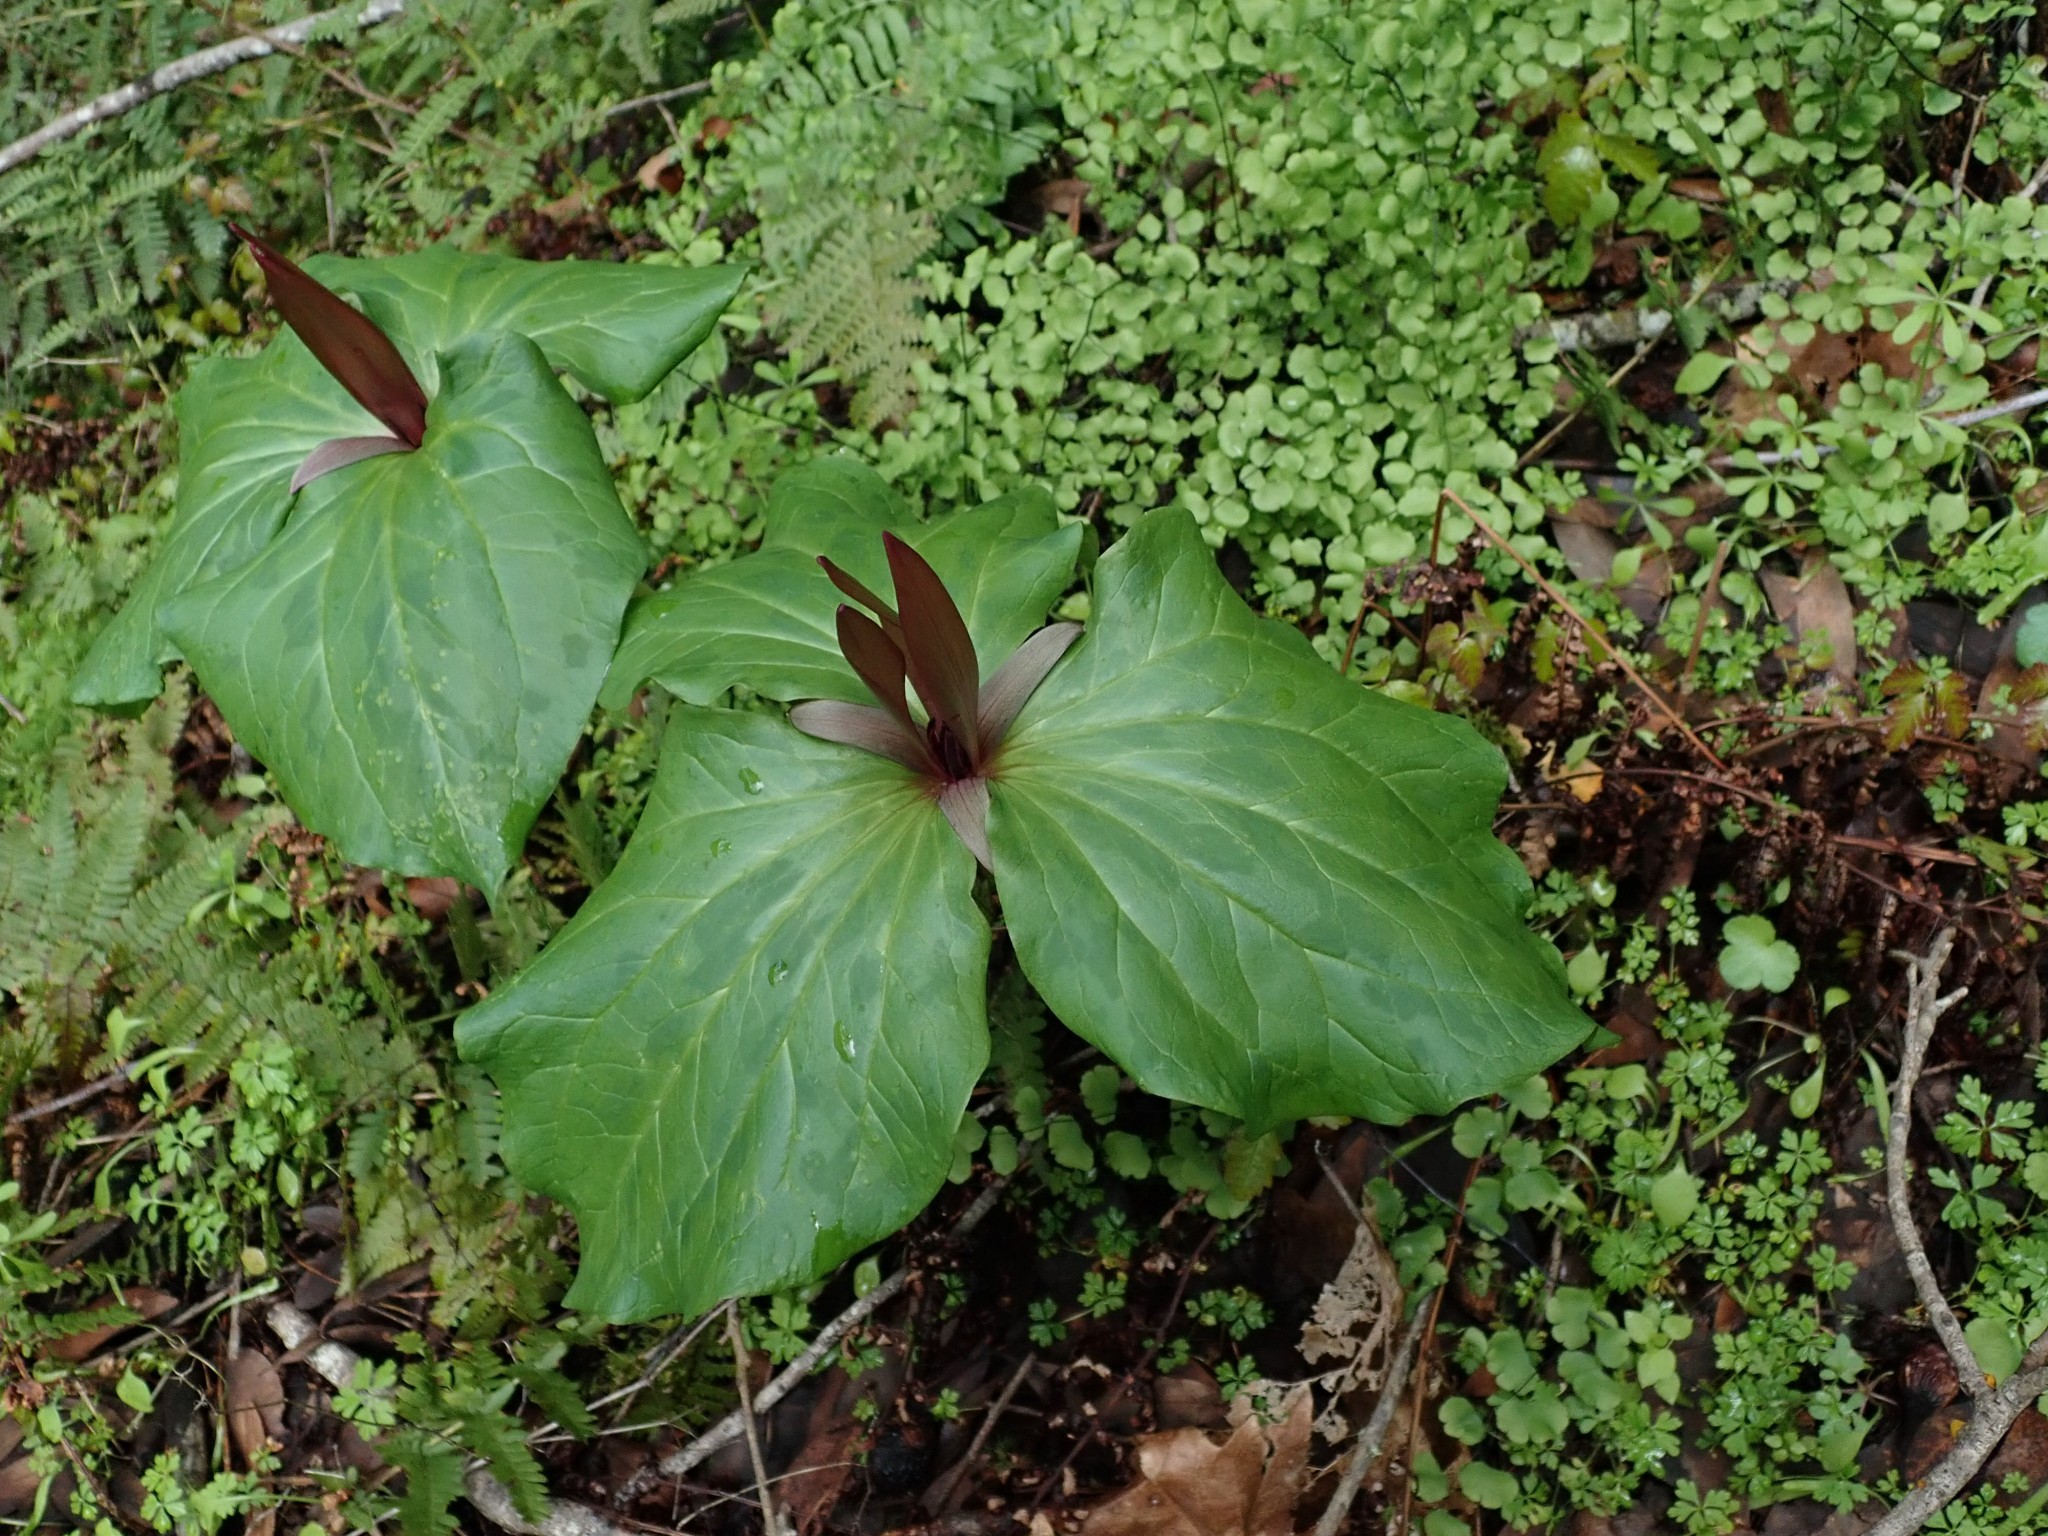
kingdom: Plantae
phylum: Tracheophyta
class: Liliopsida
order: Liliales
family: Melanthiaceae
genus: Trillium
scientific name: Trillium chloropetalum
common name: Giant trillium
